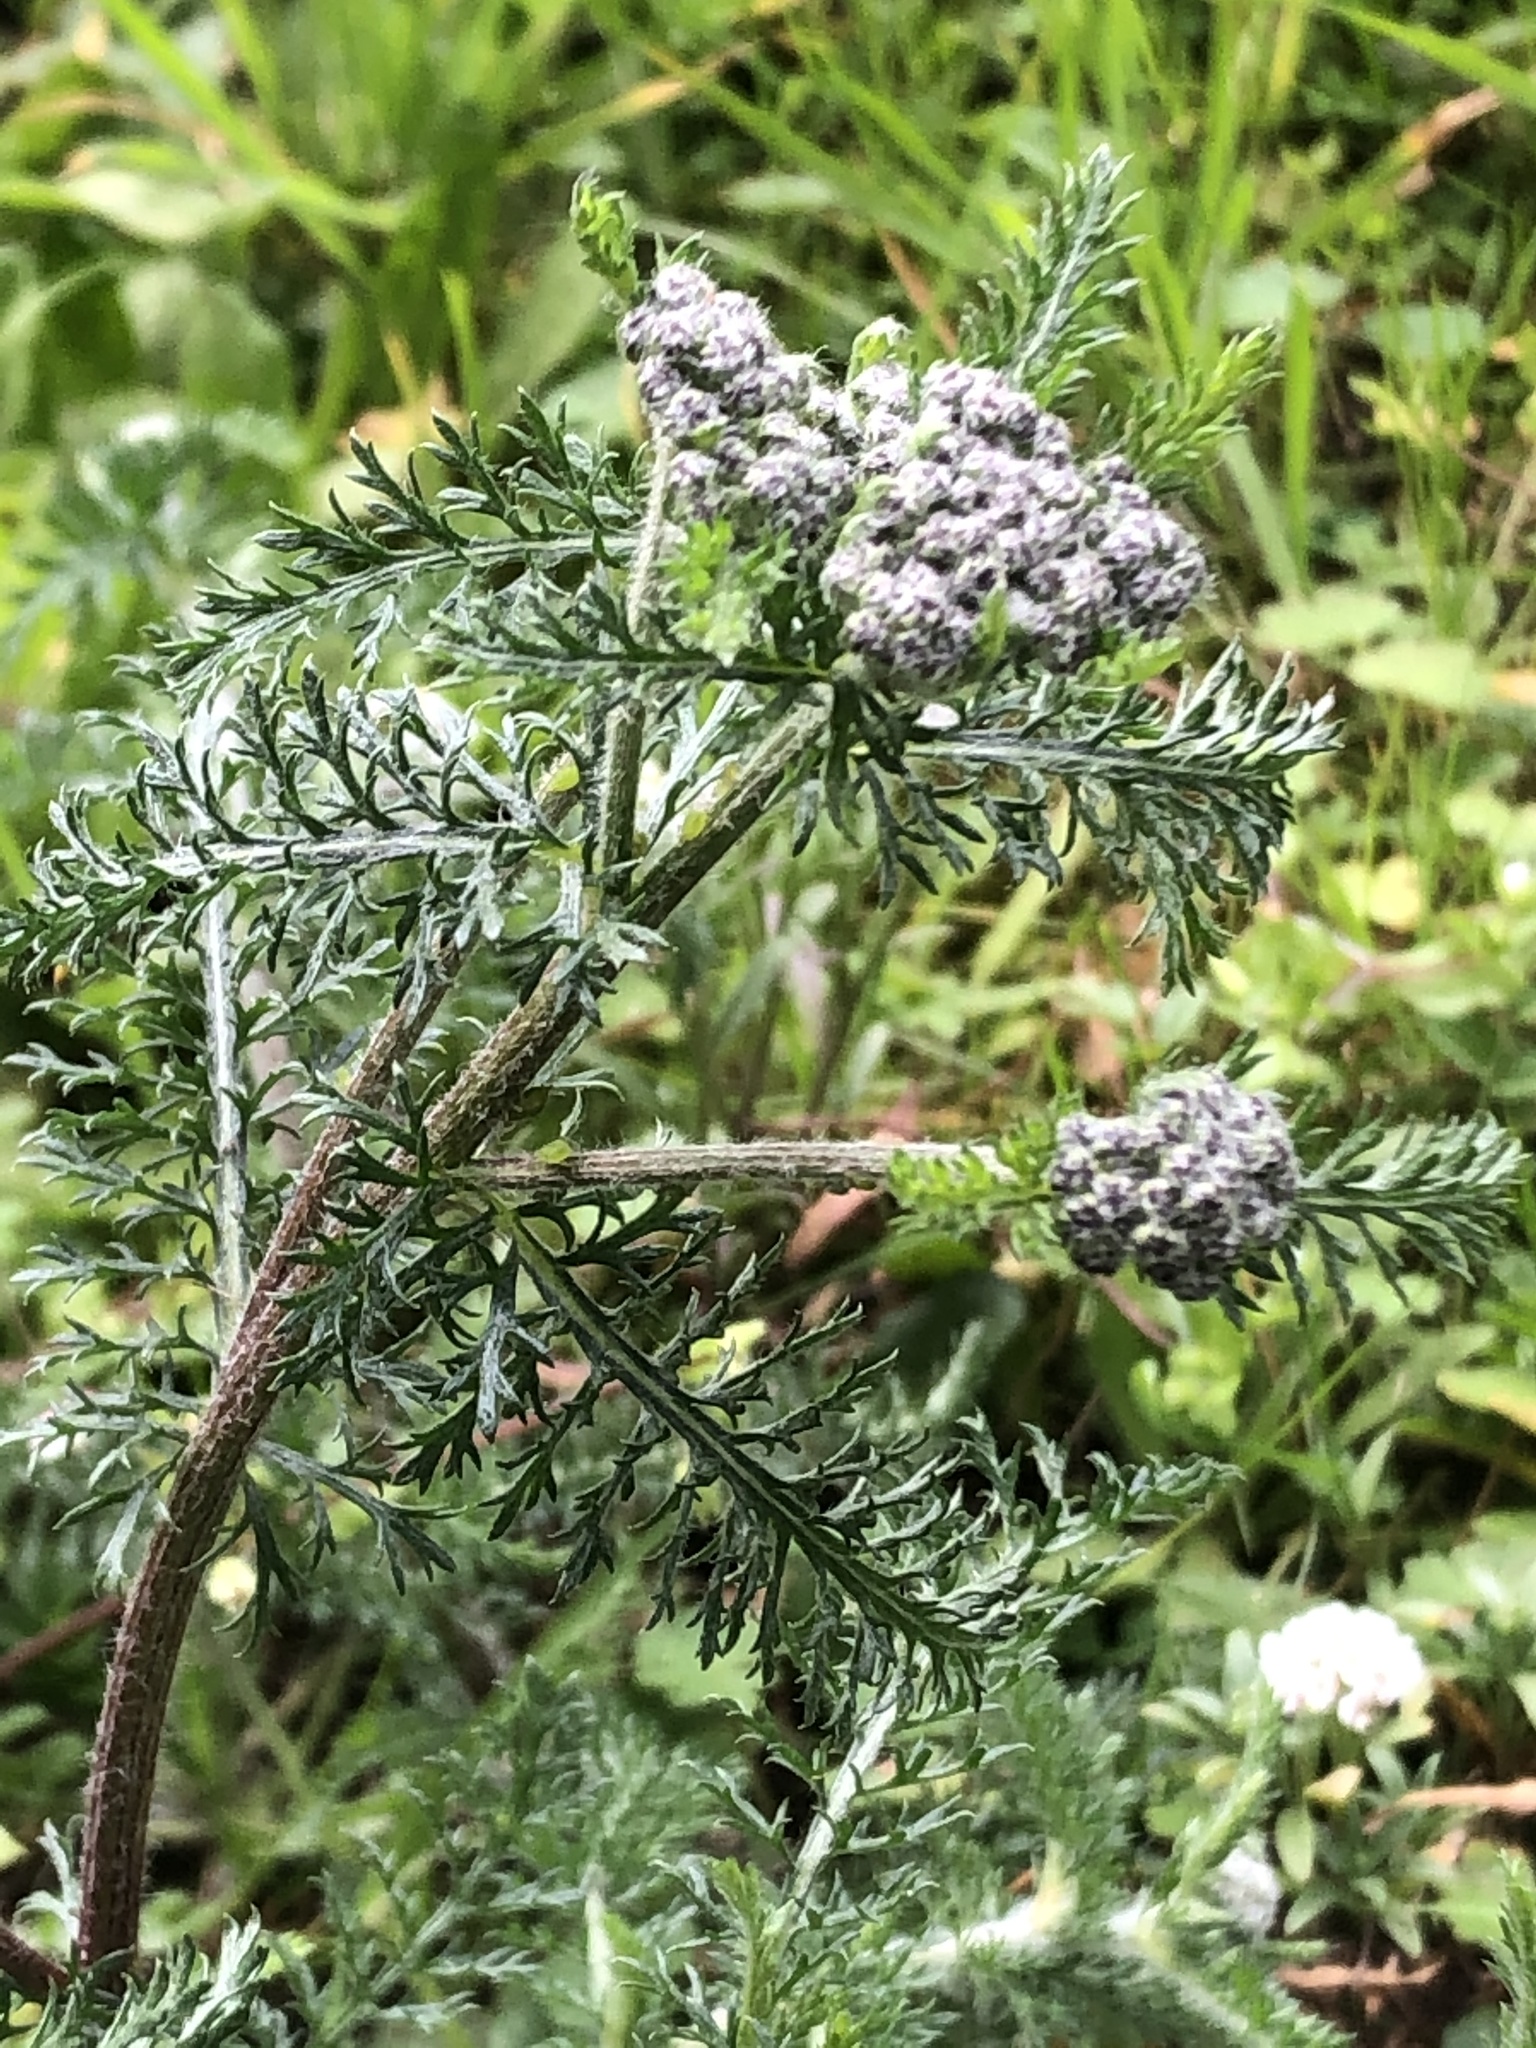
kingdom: Plantae
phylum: Tracheophyta
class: Magnoliopsida
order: Asterales
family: Asteraceae
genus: Achillea
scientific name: Achillea millefolium
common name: Yarrow
